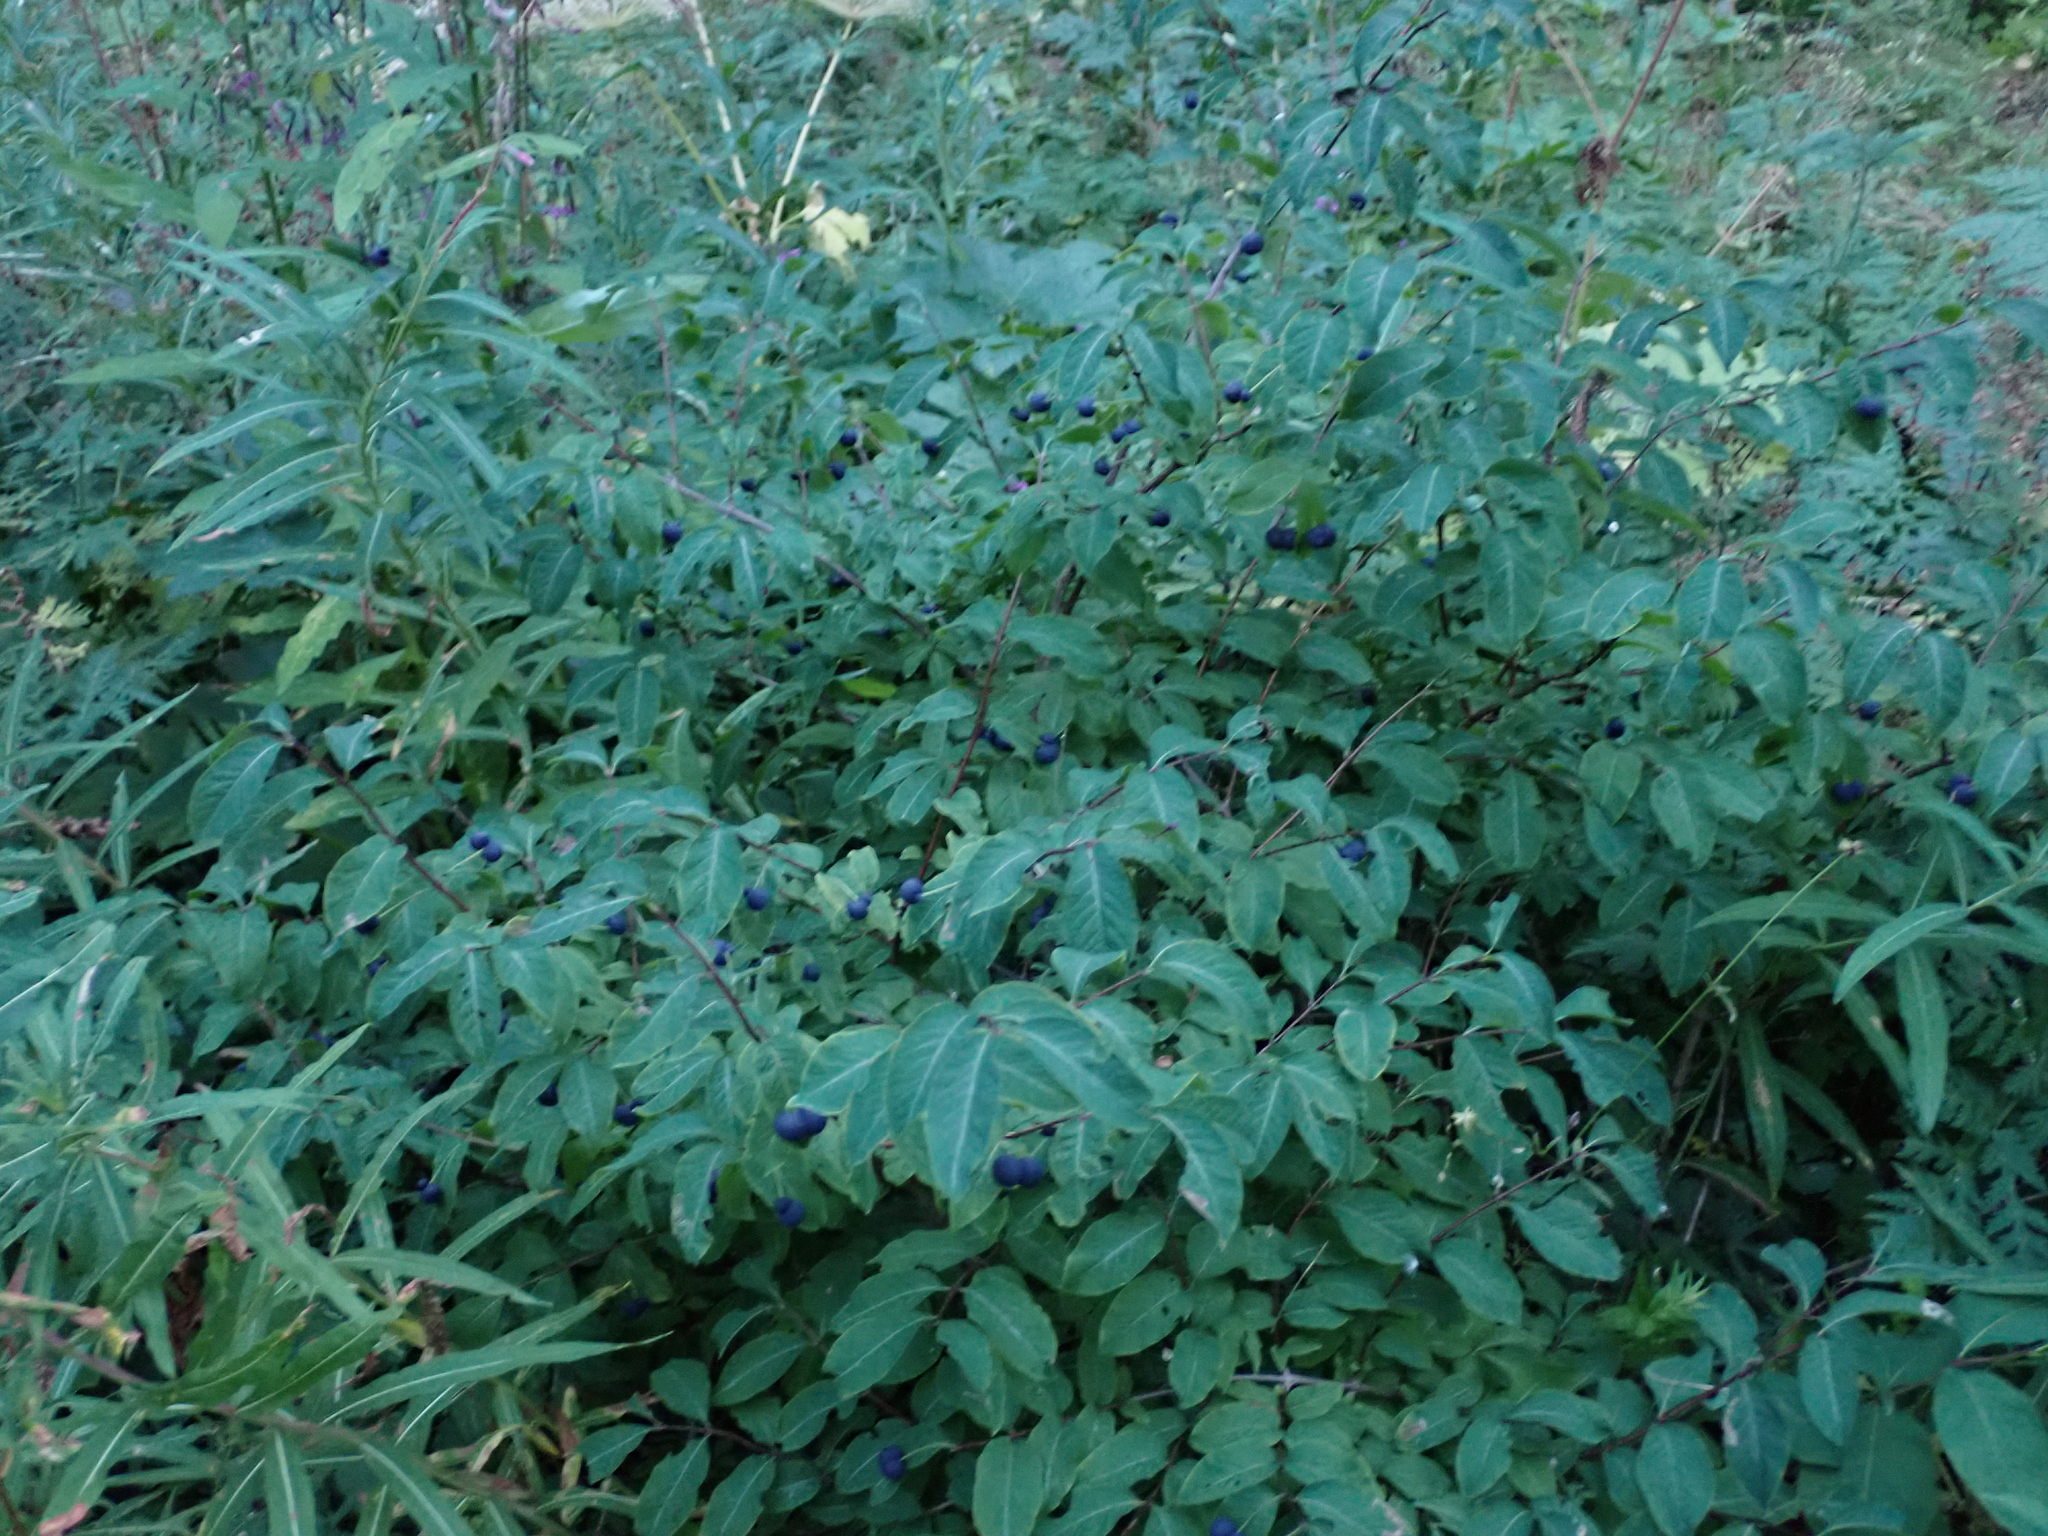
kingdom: Plantae
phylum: Tracheophyta
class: Magnoliopsida
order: Dipsacales
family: Caprifoliaceae
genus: Lonicera
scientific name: Lonicera nigra
